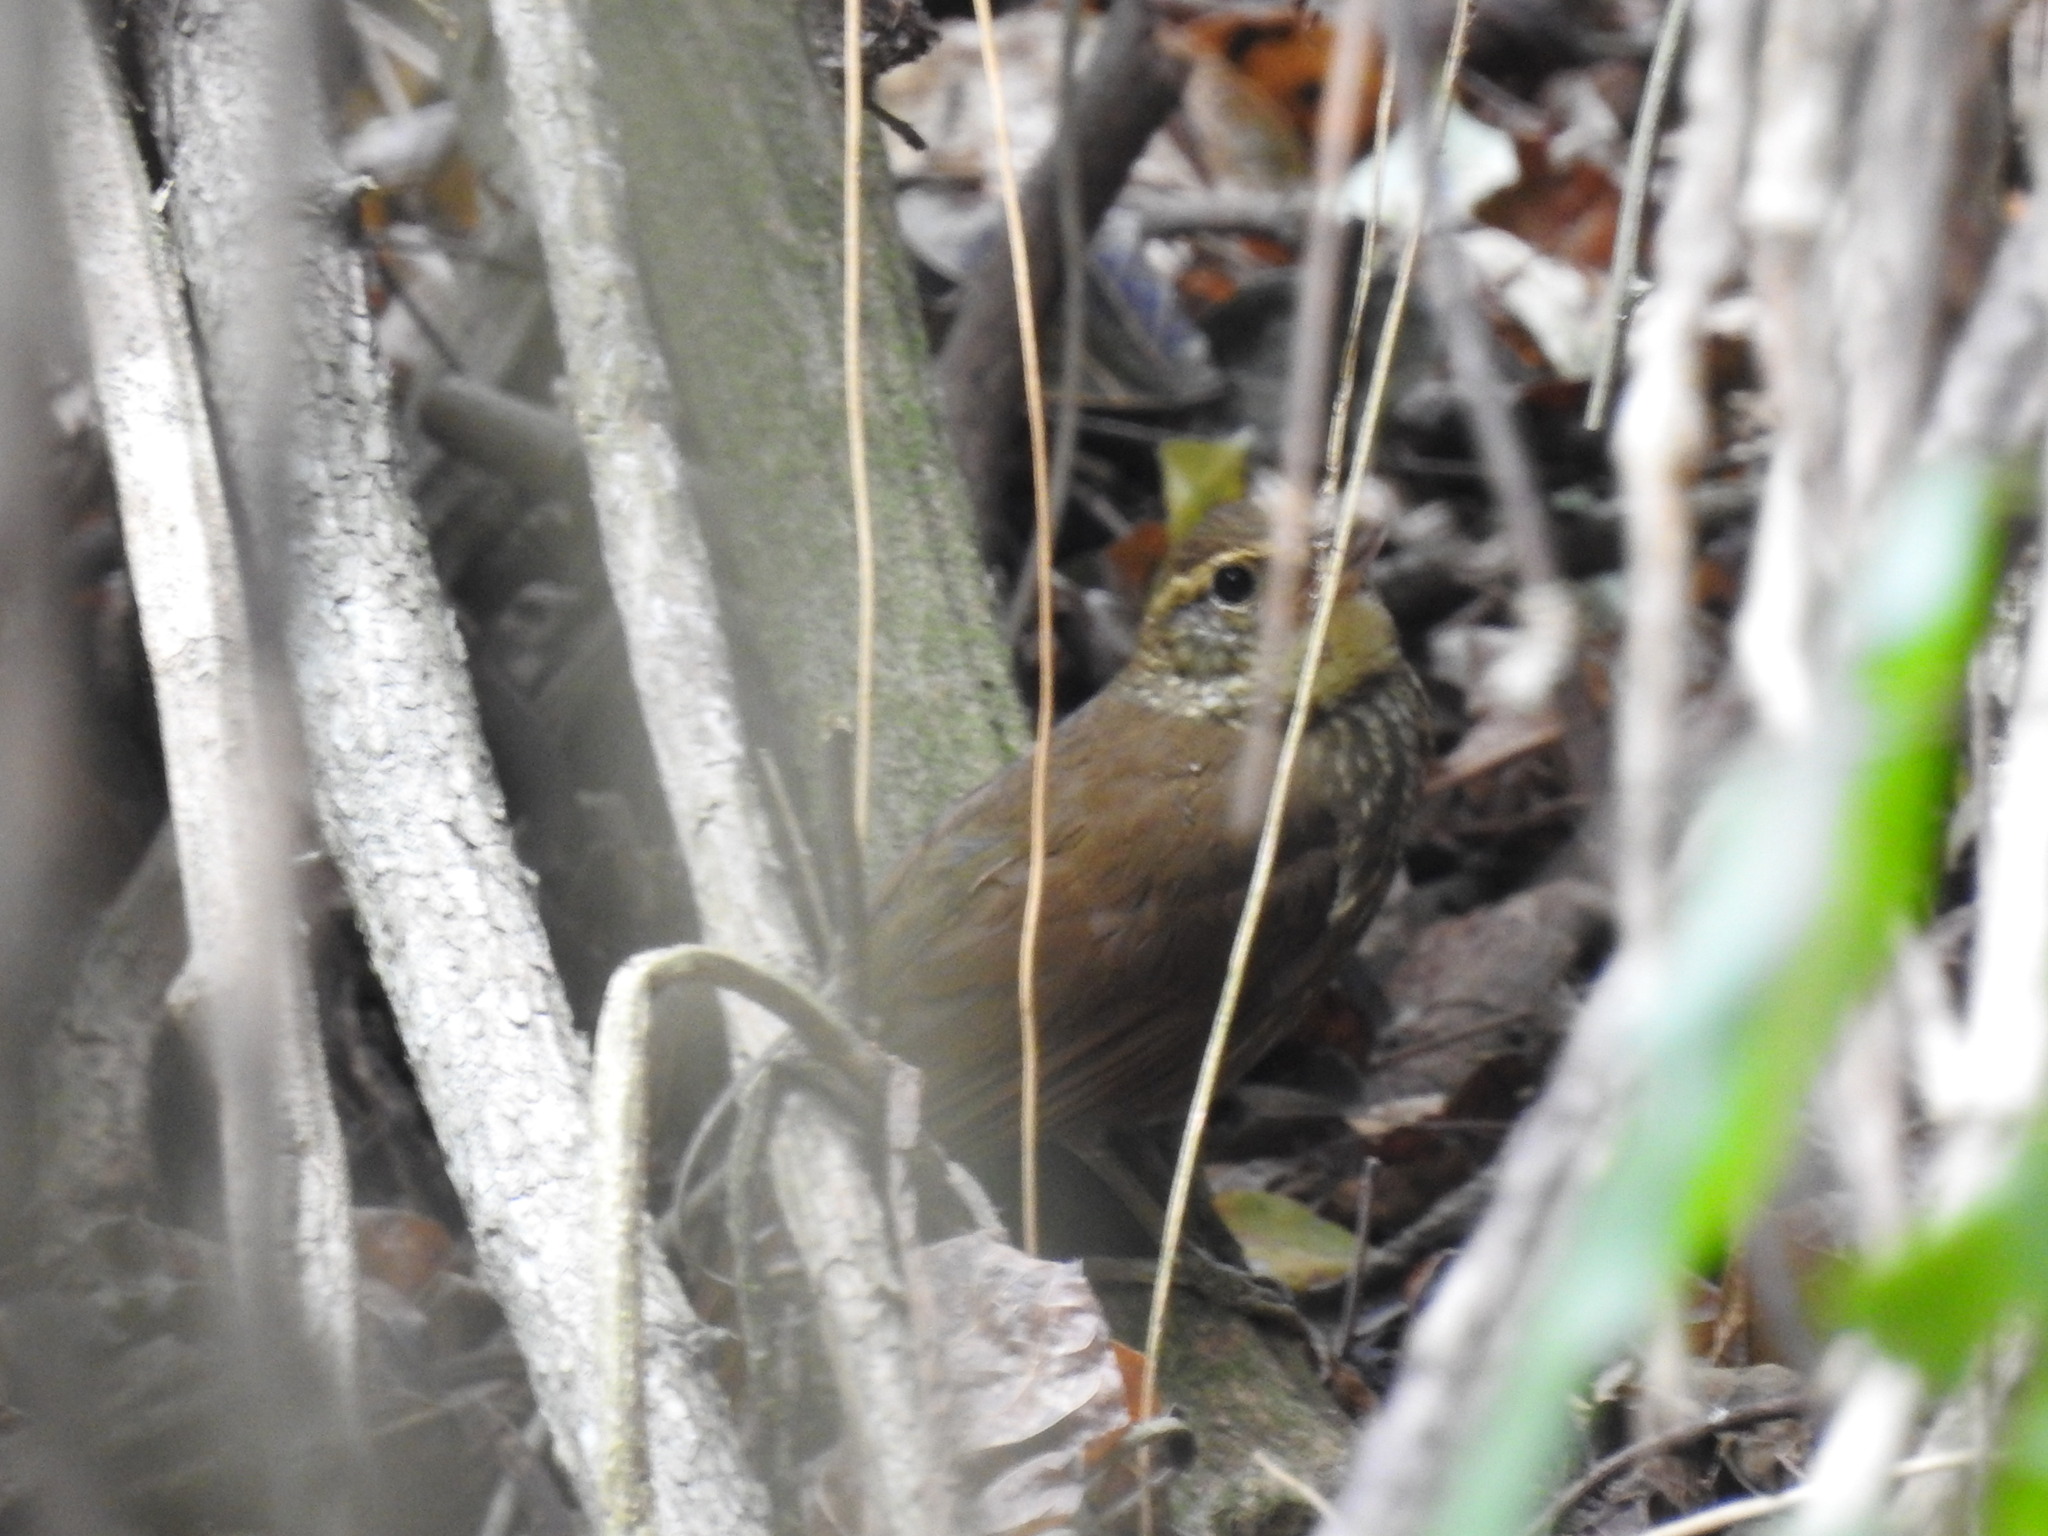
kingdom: Animalia
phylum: Chordata
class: Aves
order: Passeriformes
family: Furnariidae
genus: Syndactyla
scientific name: Syndactyla rufosuperciliata
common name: Buff-browed foliage-gleaner
